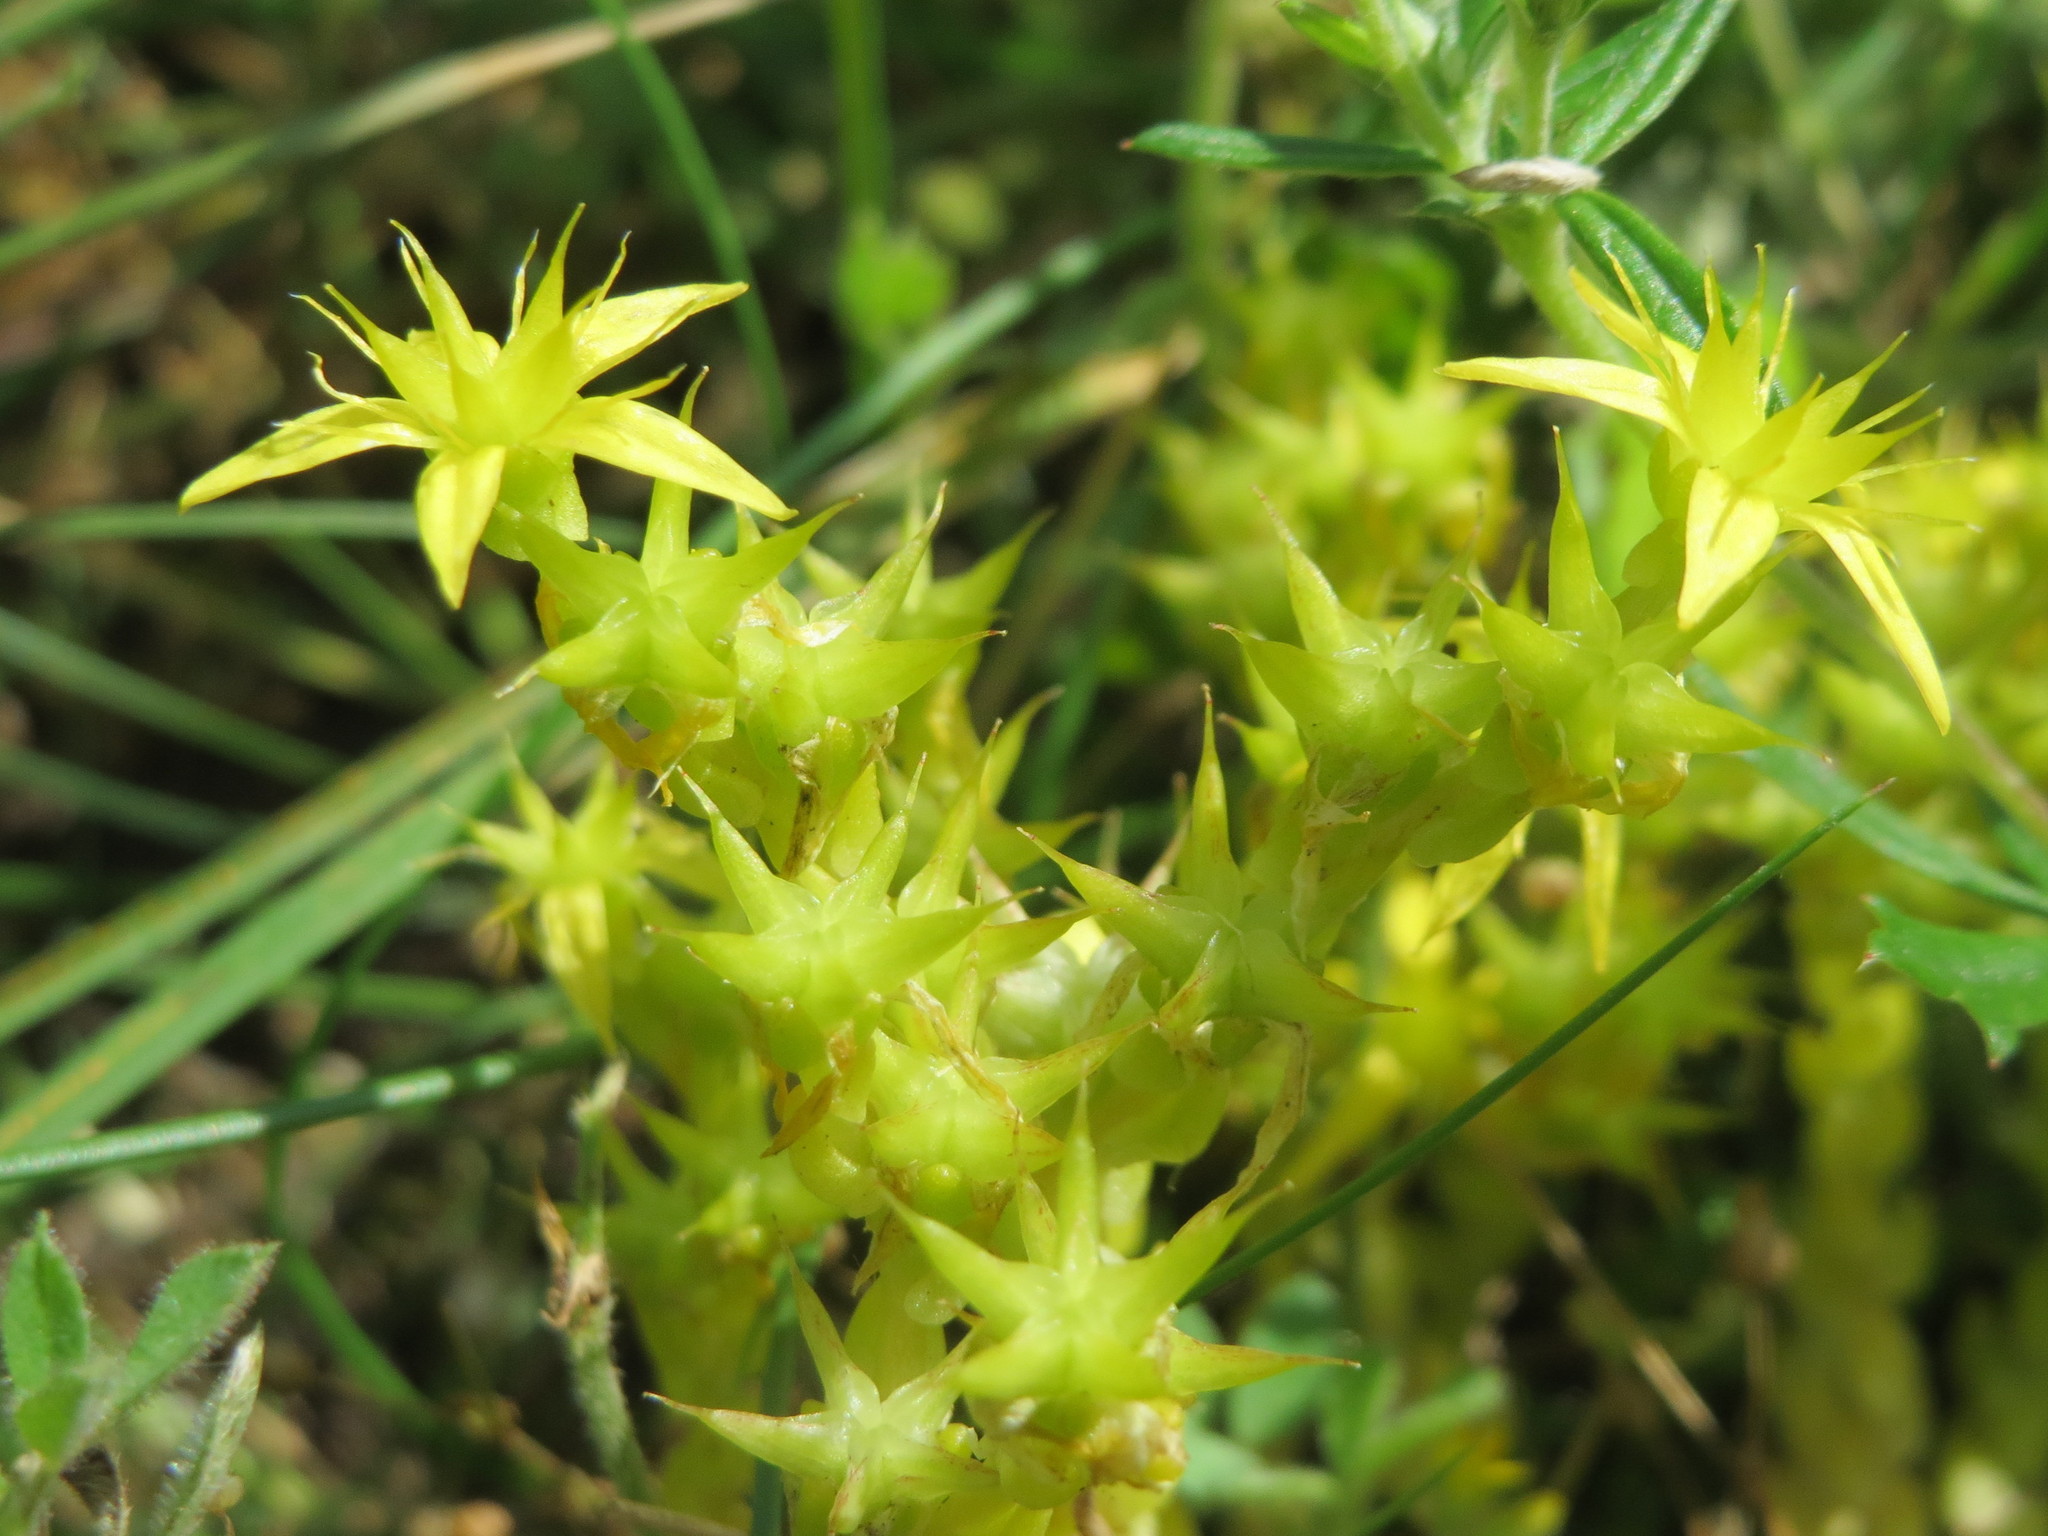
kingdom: Plantae
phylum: Tracheophyta
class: Magnoliopsida
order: Saxifragales
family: Crassulaceae
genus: Sedum
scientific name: Sedum acre
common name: Biting stonecrop
